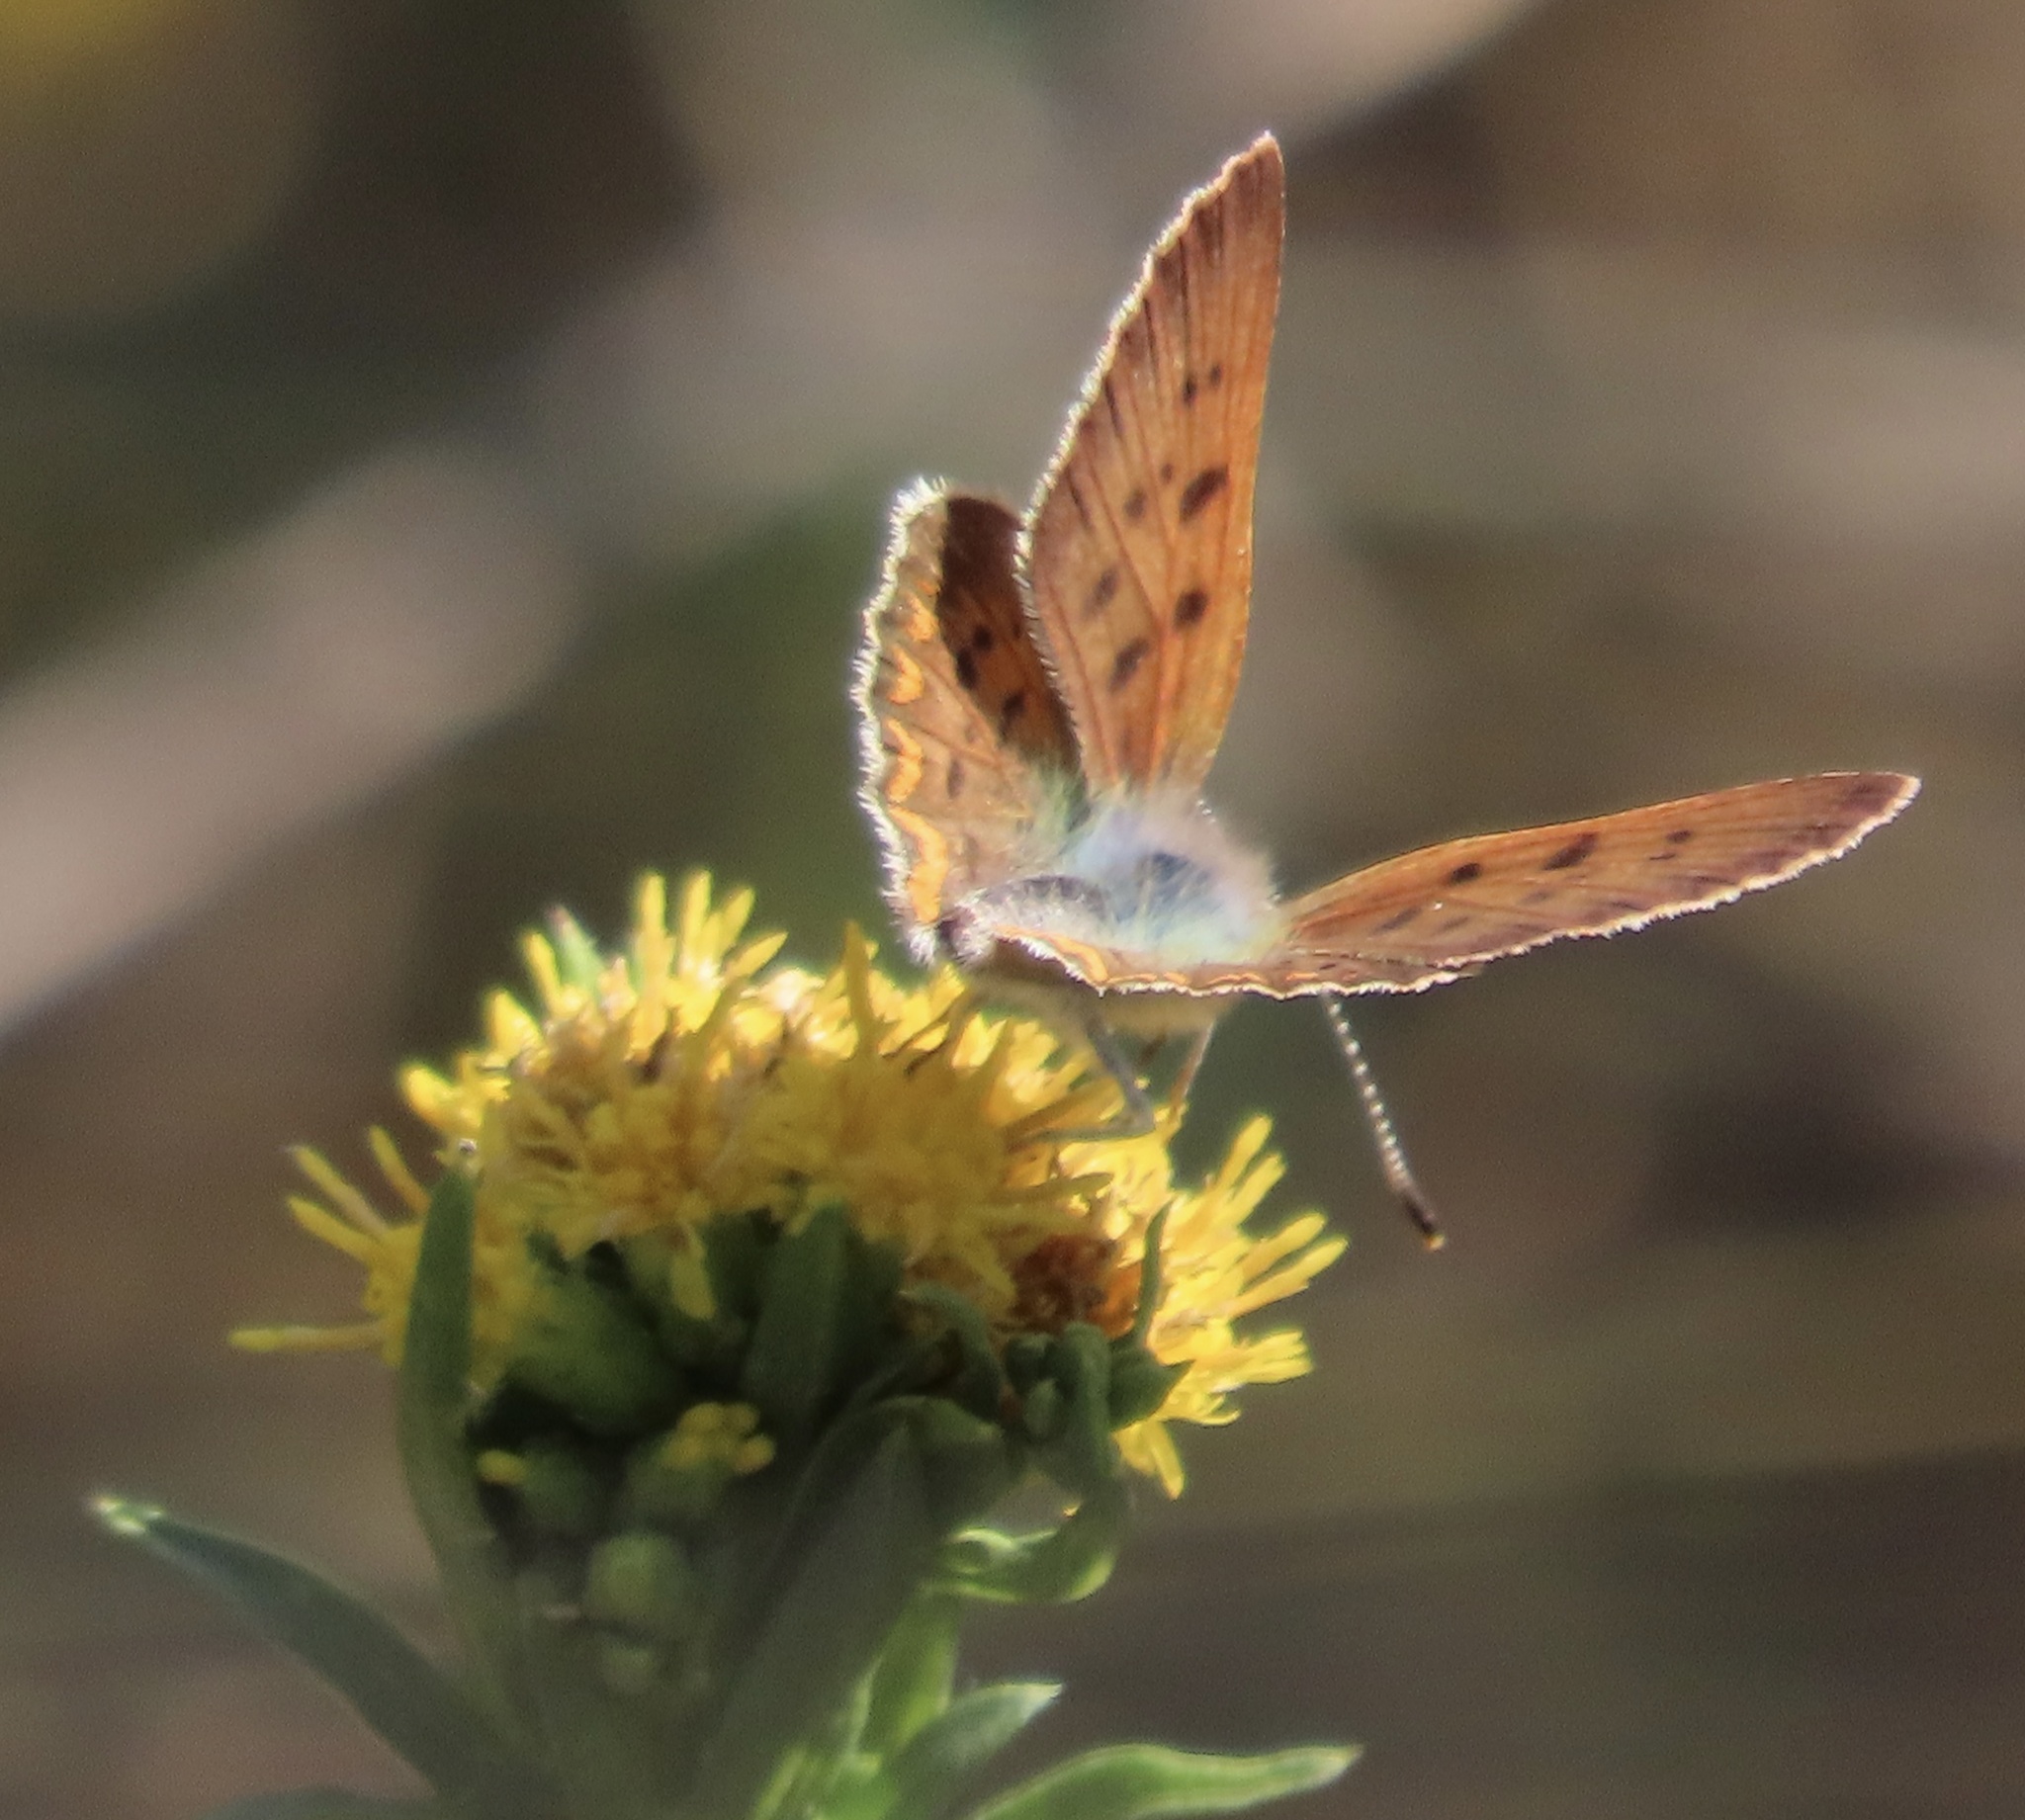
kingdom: Animalia
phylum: Arthropoda
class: Insecta
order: Lepidoptera
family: Lycaenidae
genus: Tharsalea
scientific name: Tharsalea helloides
